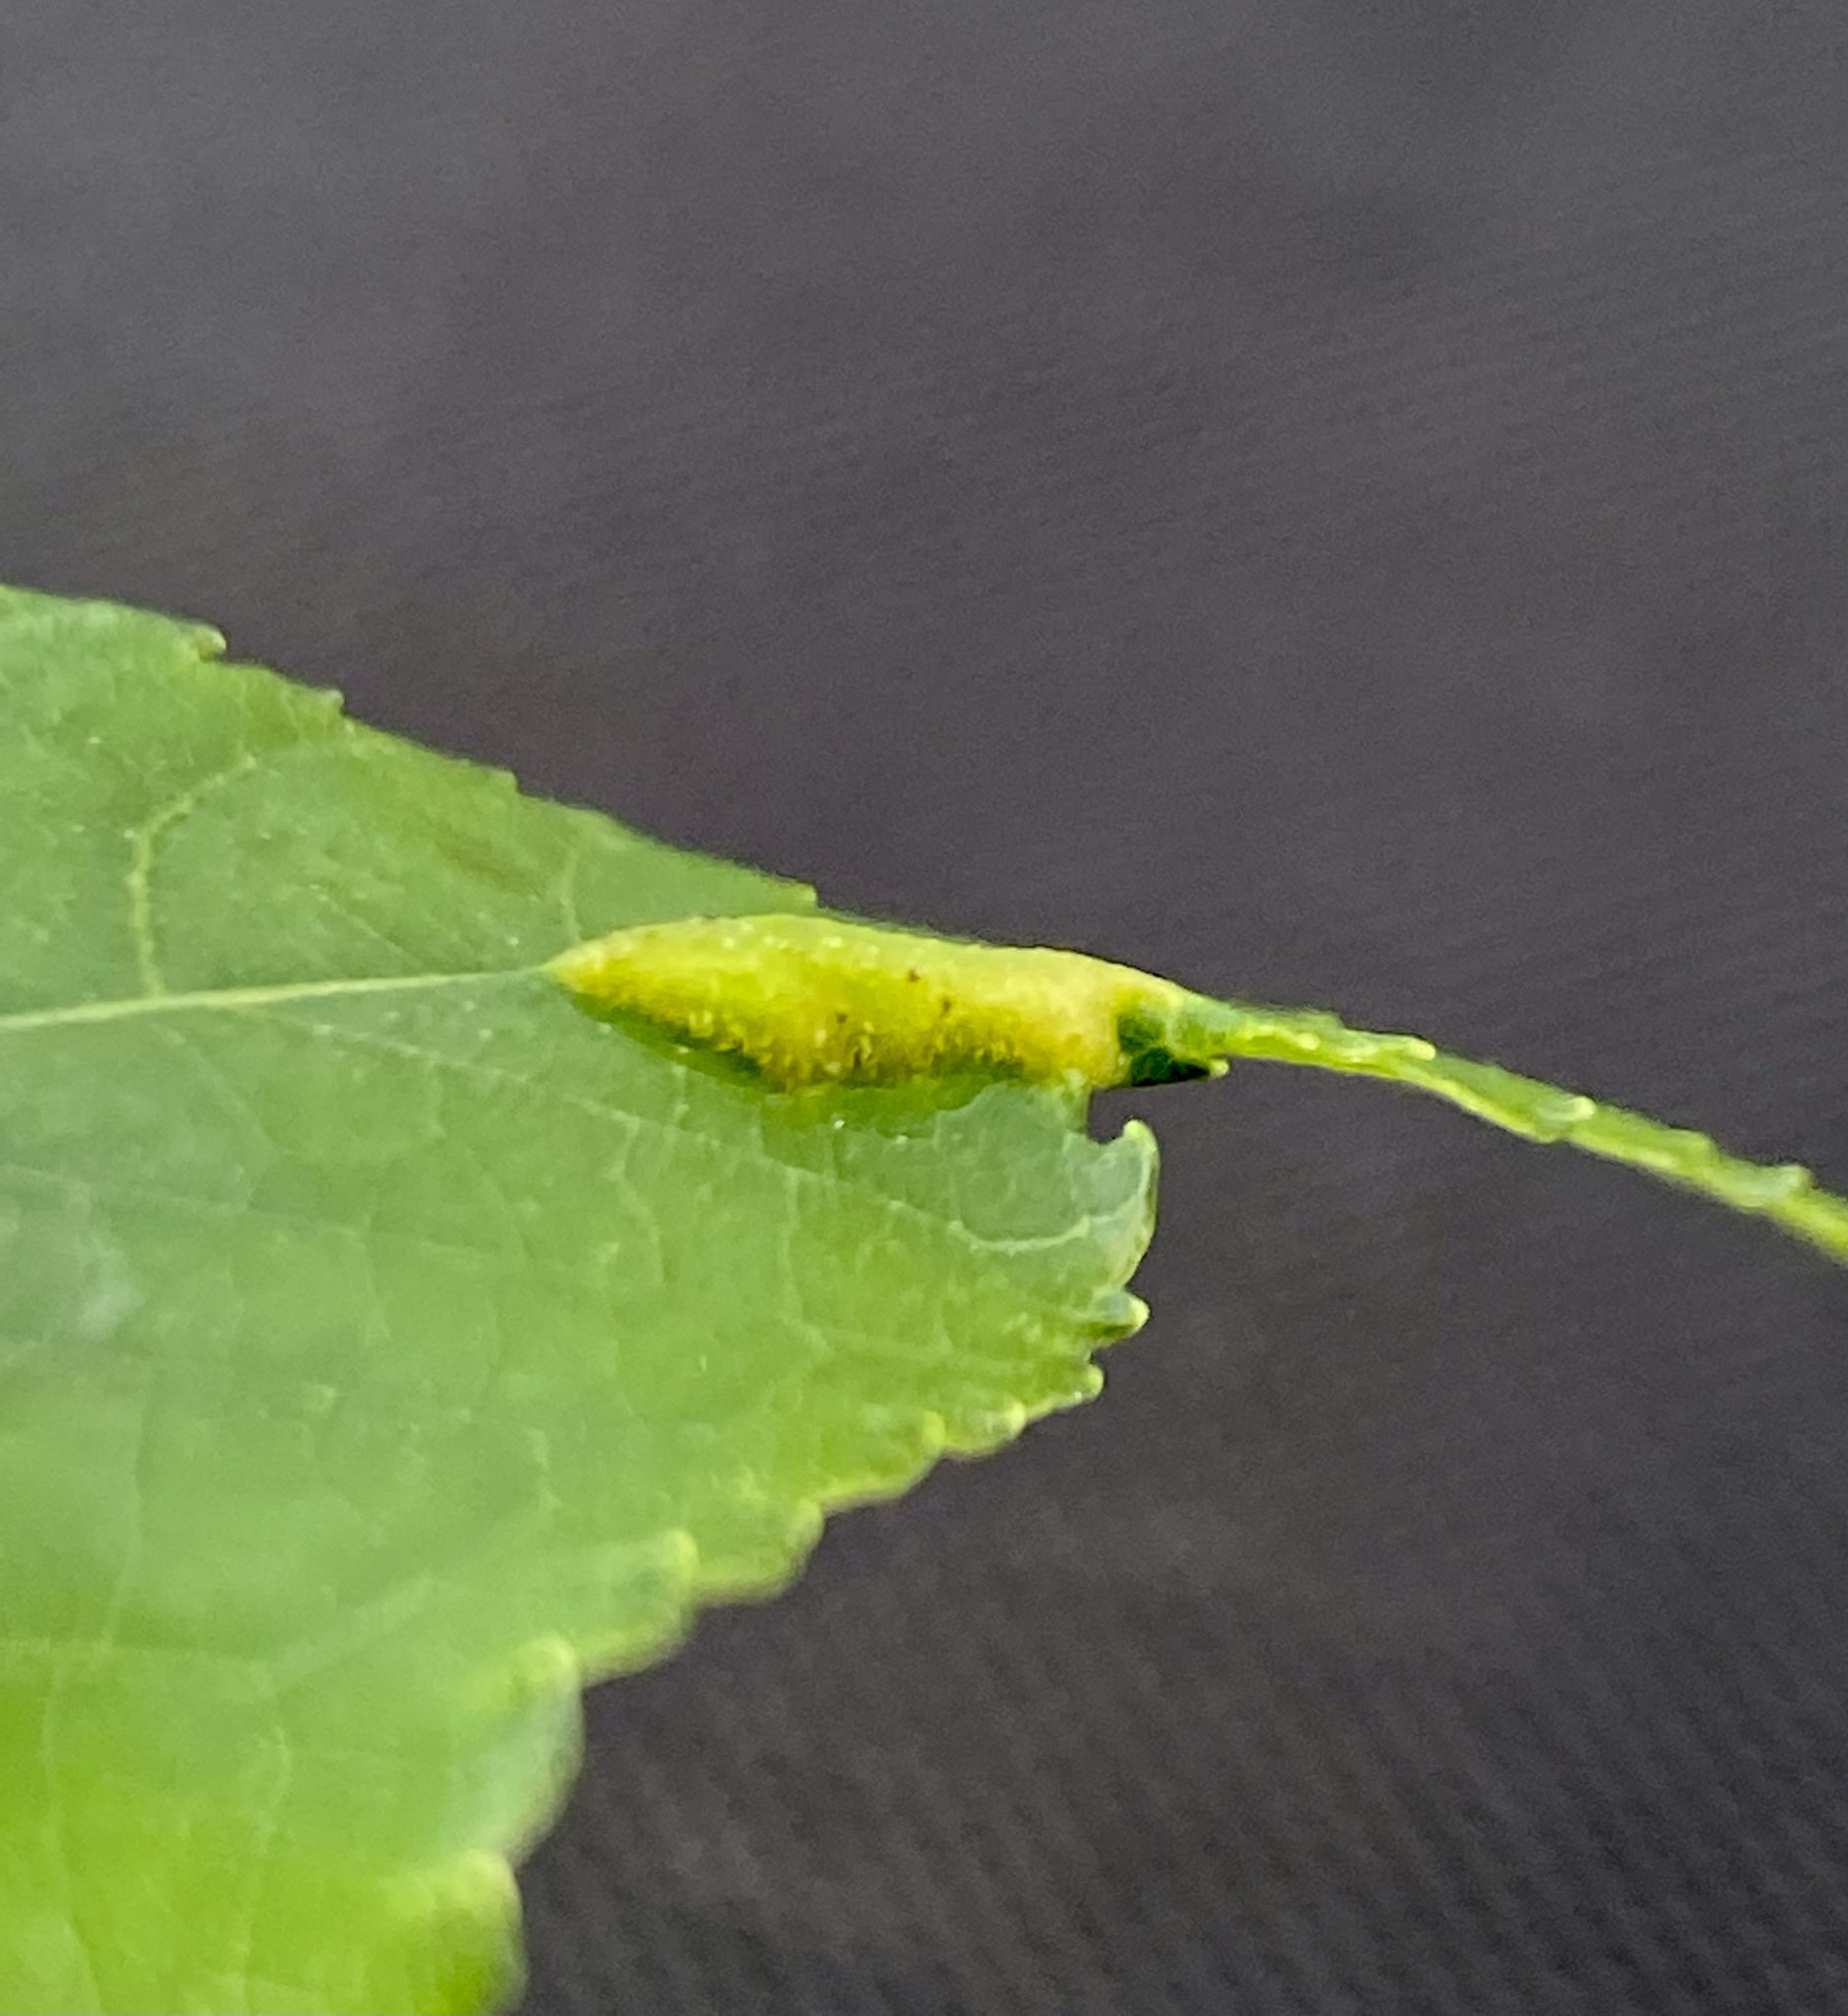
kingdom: Animalia
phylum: Arthropoda
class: Insecta
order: Hemiptera
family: Phylloxeridae
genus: Phylloxera
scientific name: Phylloxera caryaevenae
